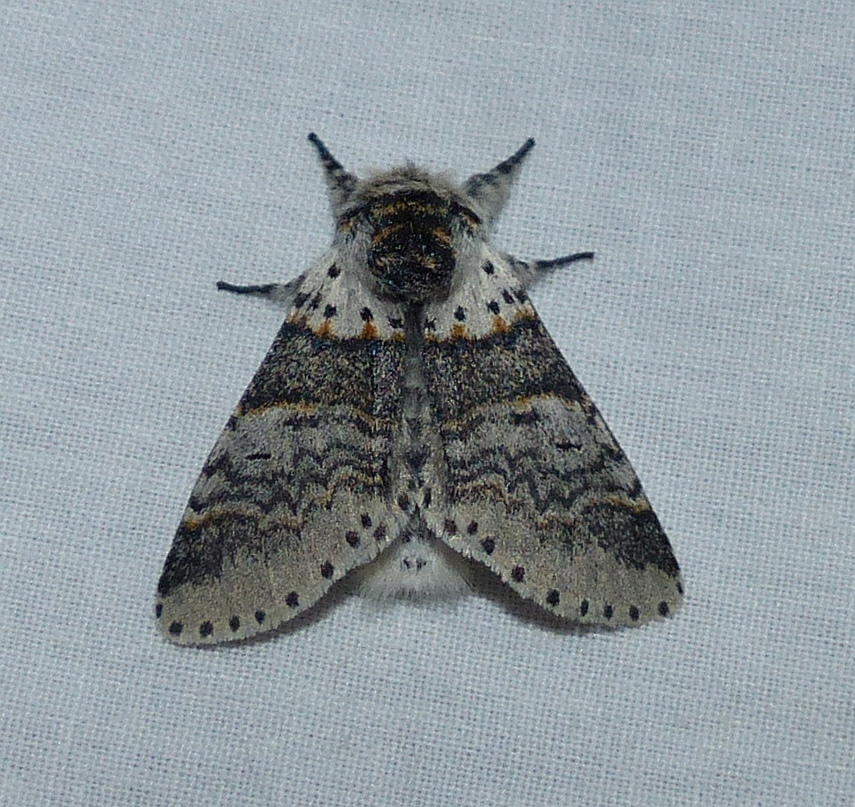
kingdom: Animalia
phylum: Arthropoda
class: Insecta
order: Lepidoptera
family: Notodontidae
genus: Furcula
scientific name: Furcula occidentalis
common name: Western furcula moth
